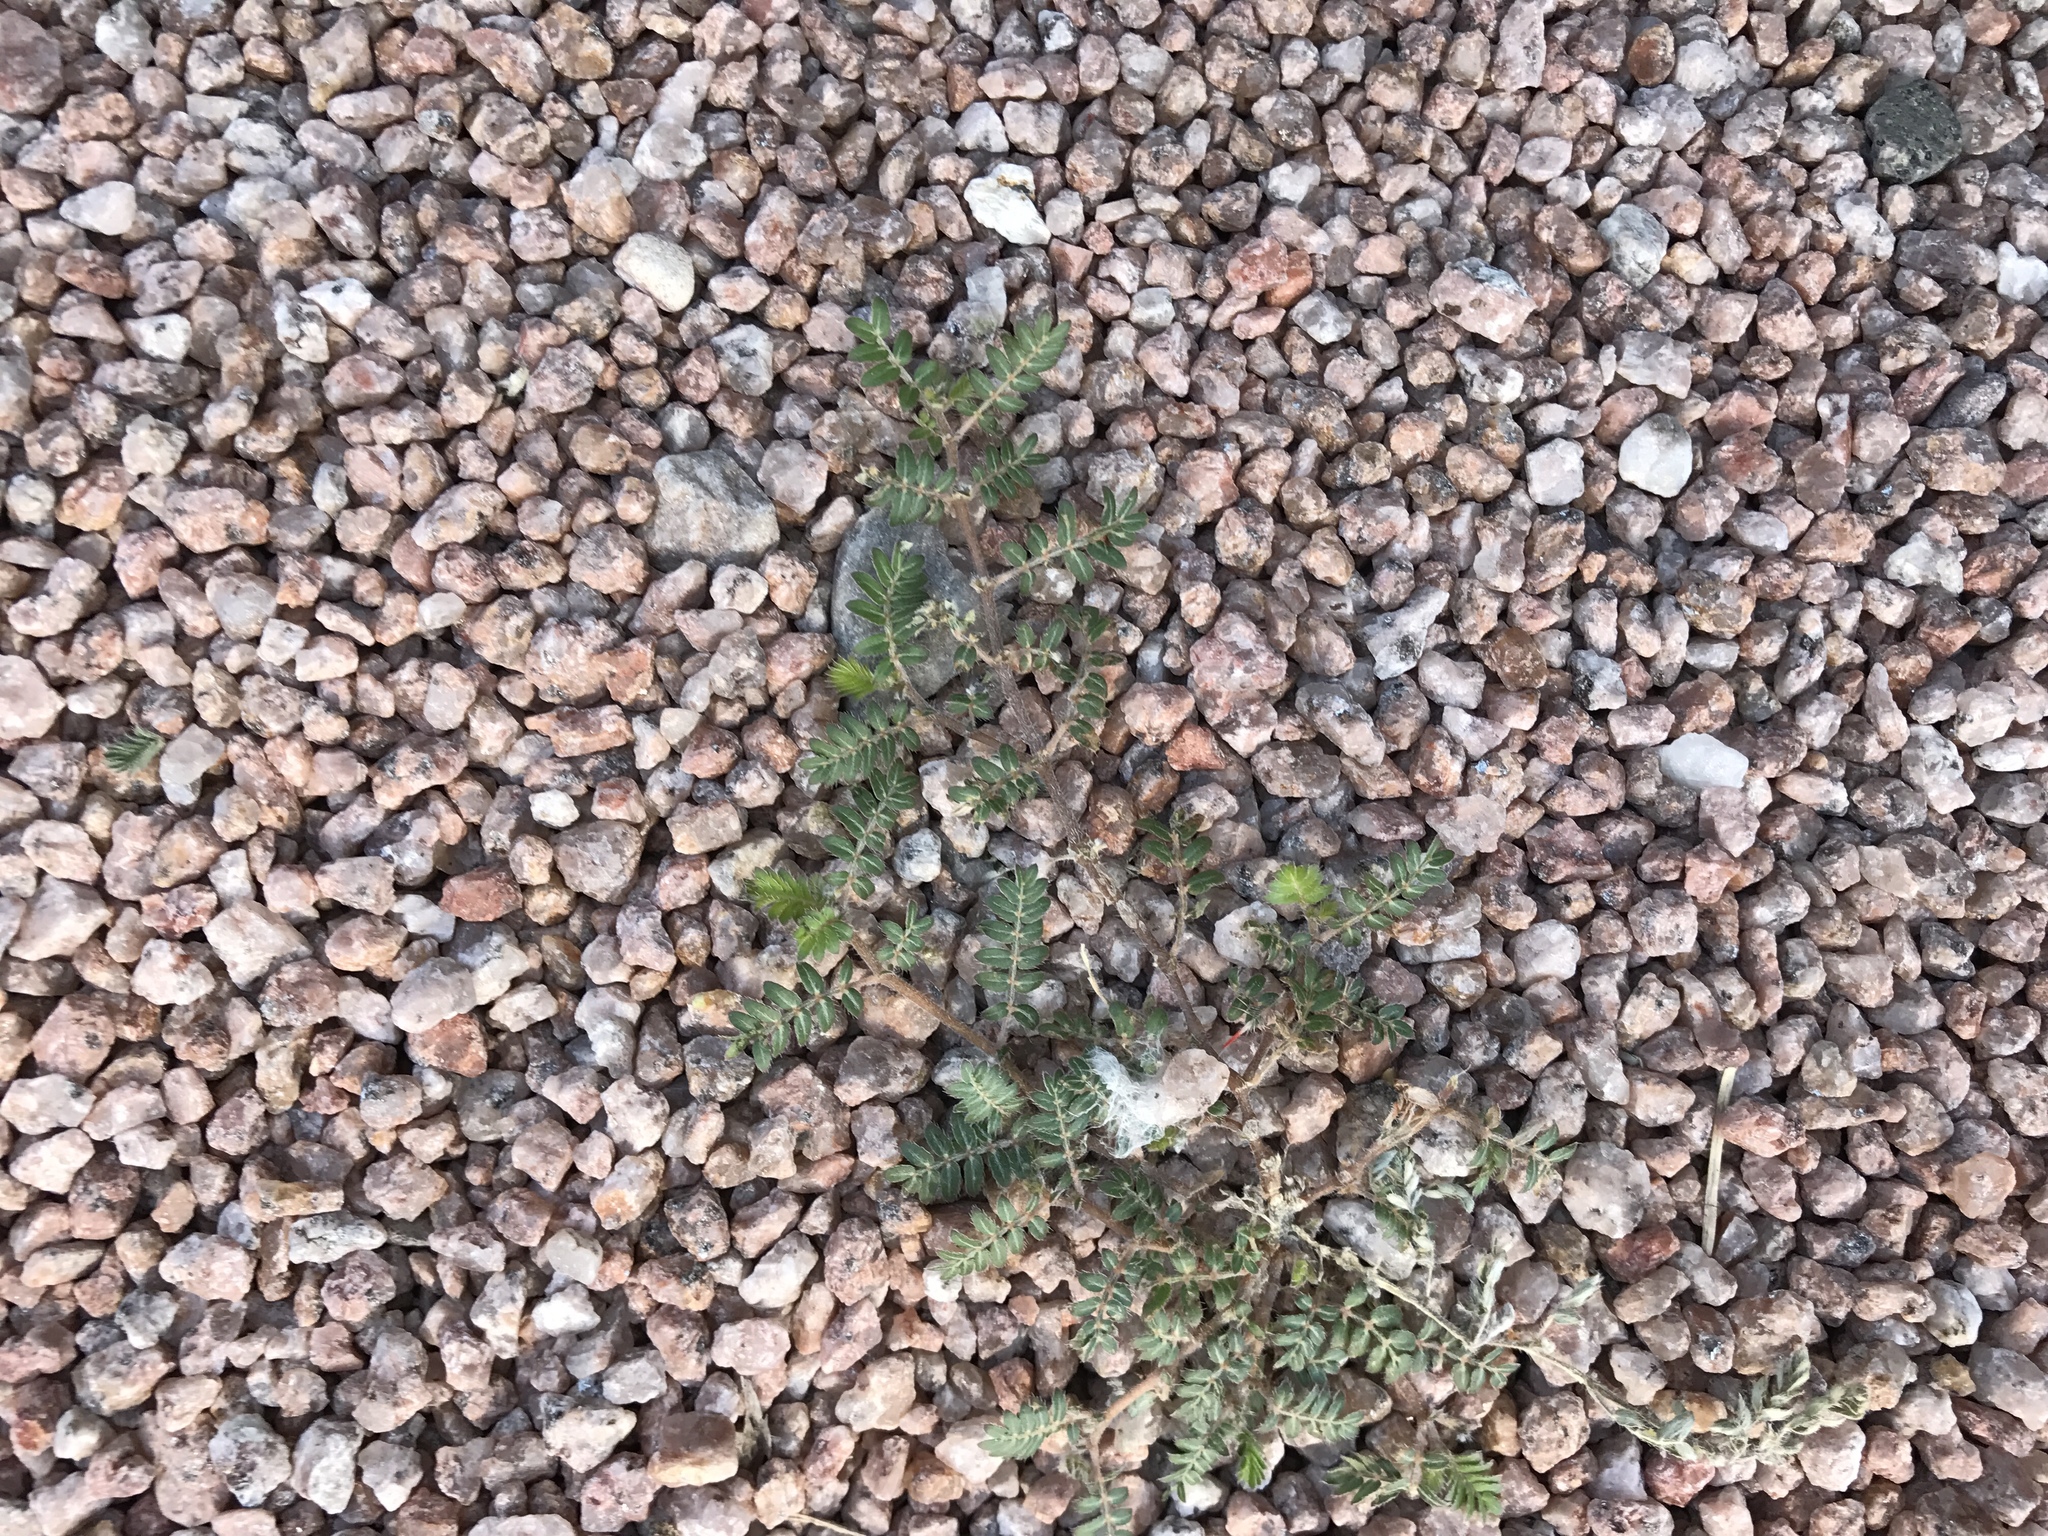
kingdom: Plantae
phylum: Tracheophyta
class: Magnoliopsida
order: Zygophyllales
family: Zygophyllaceae
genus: Tribulus
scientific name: Tribulus terrestris
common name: Puncturevine
